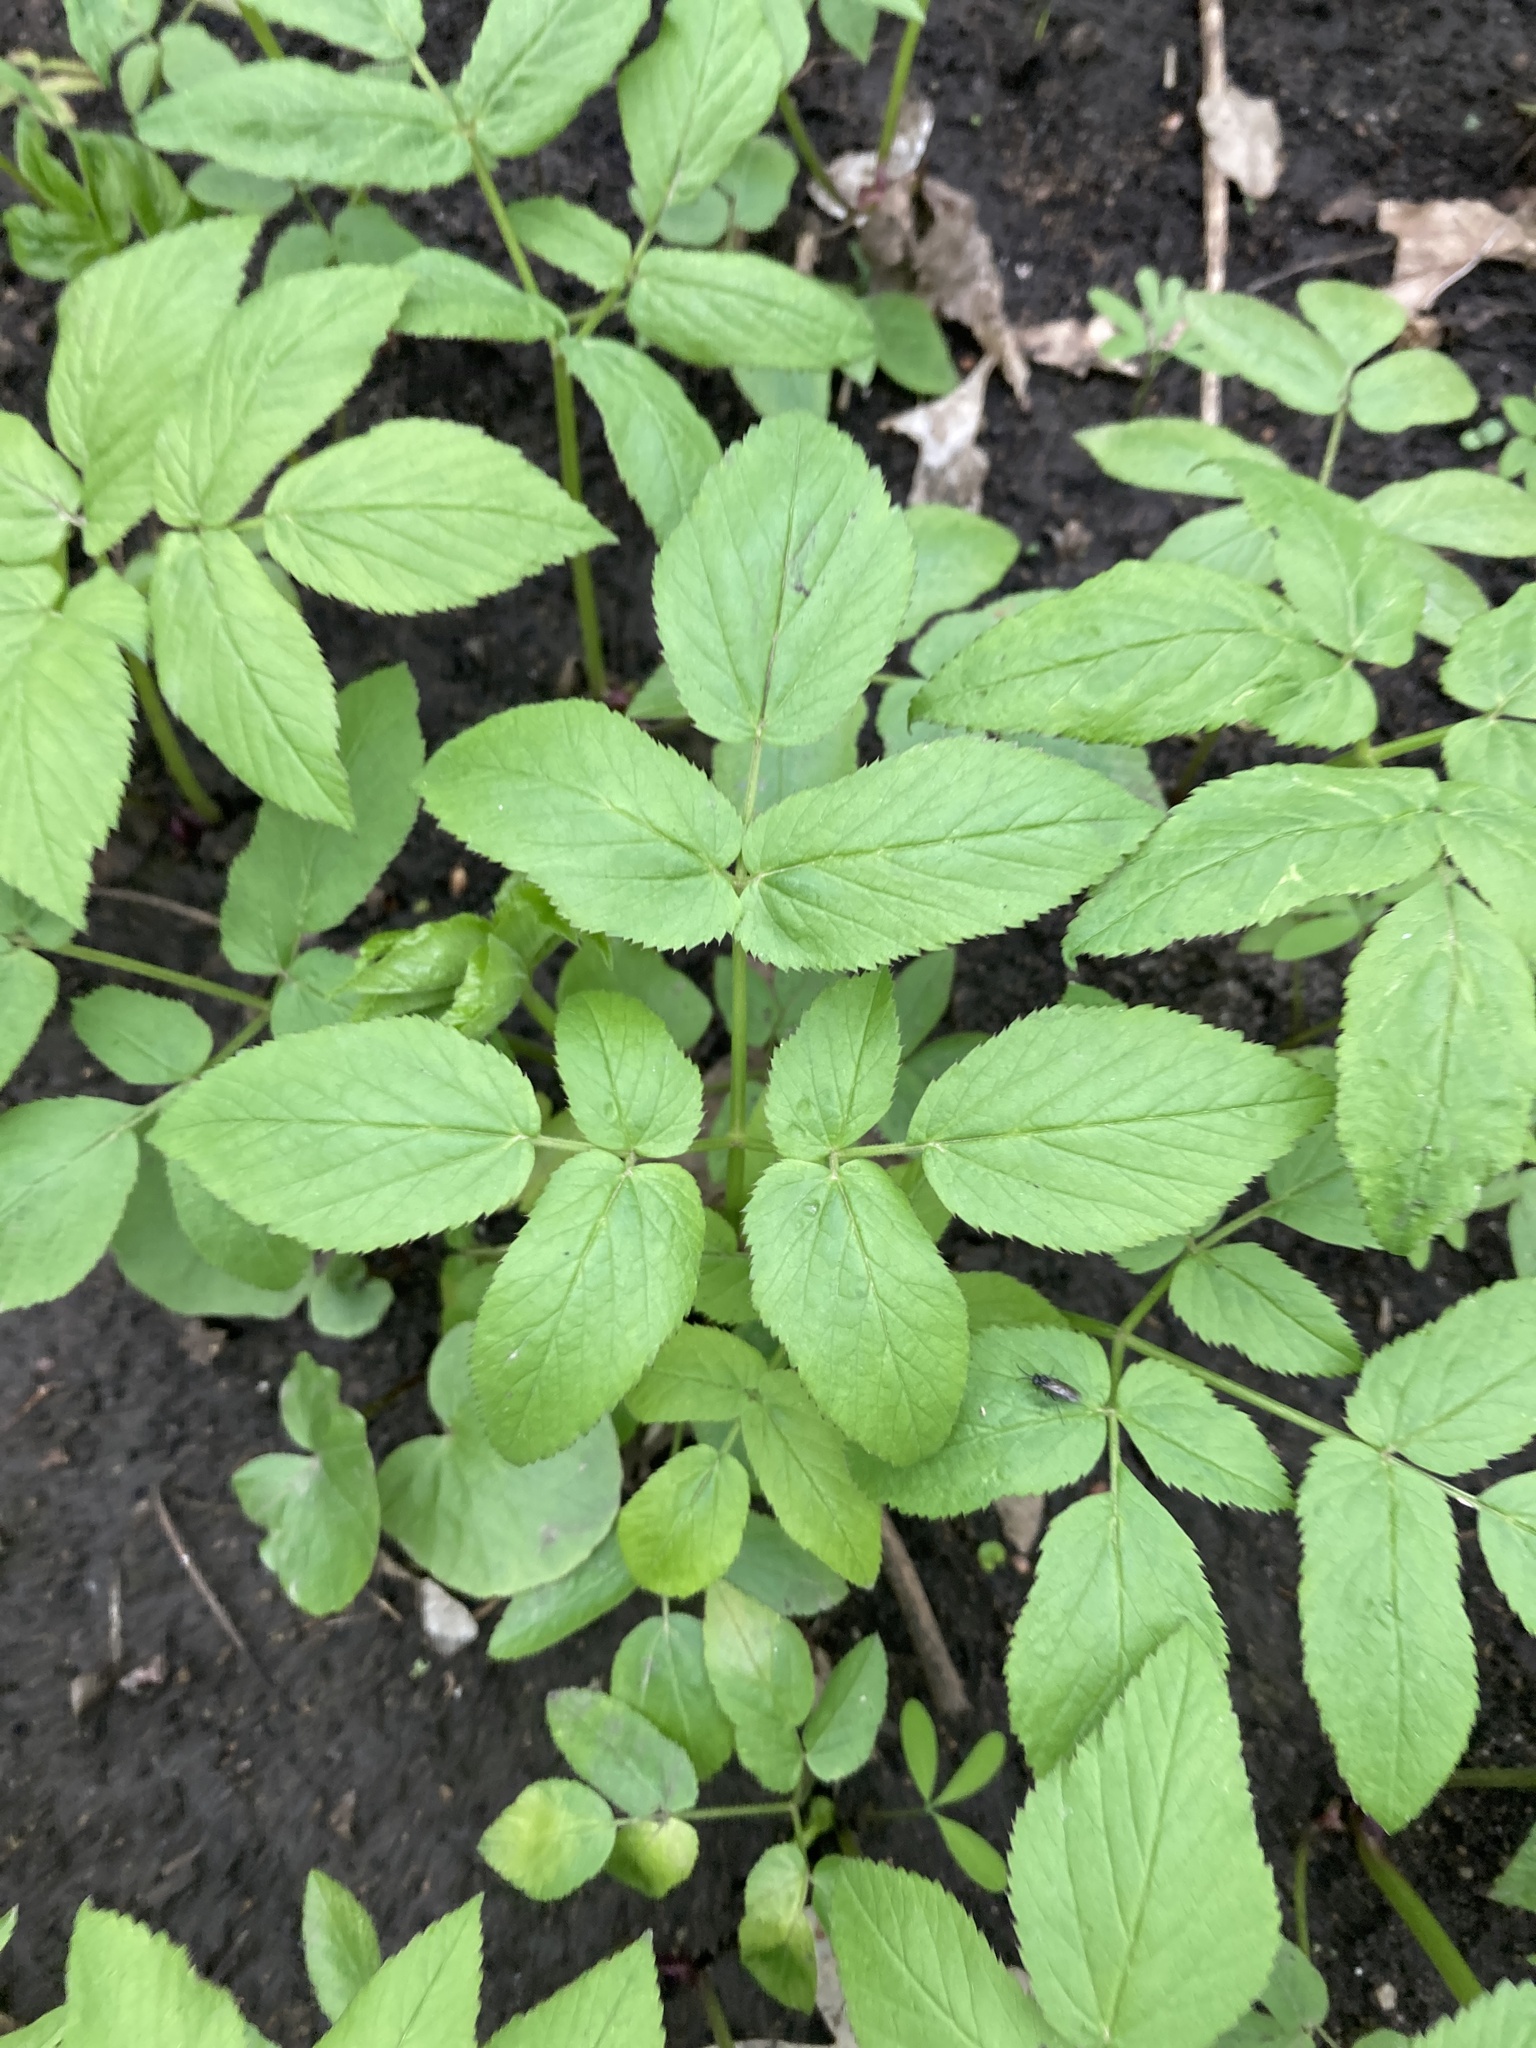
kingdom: Plantae
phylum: Tracheophyta
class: Magnoliopsida
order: Apiales
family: Apiaceae
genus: Aegopodium
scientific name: Aegopodium podagraria
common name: Ground-elder
